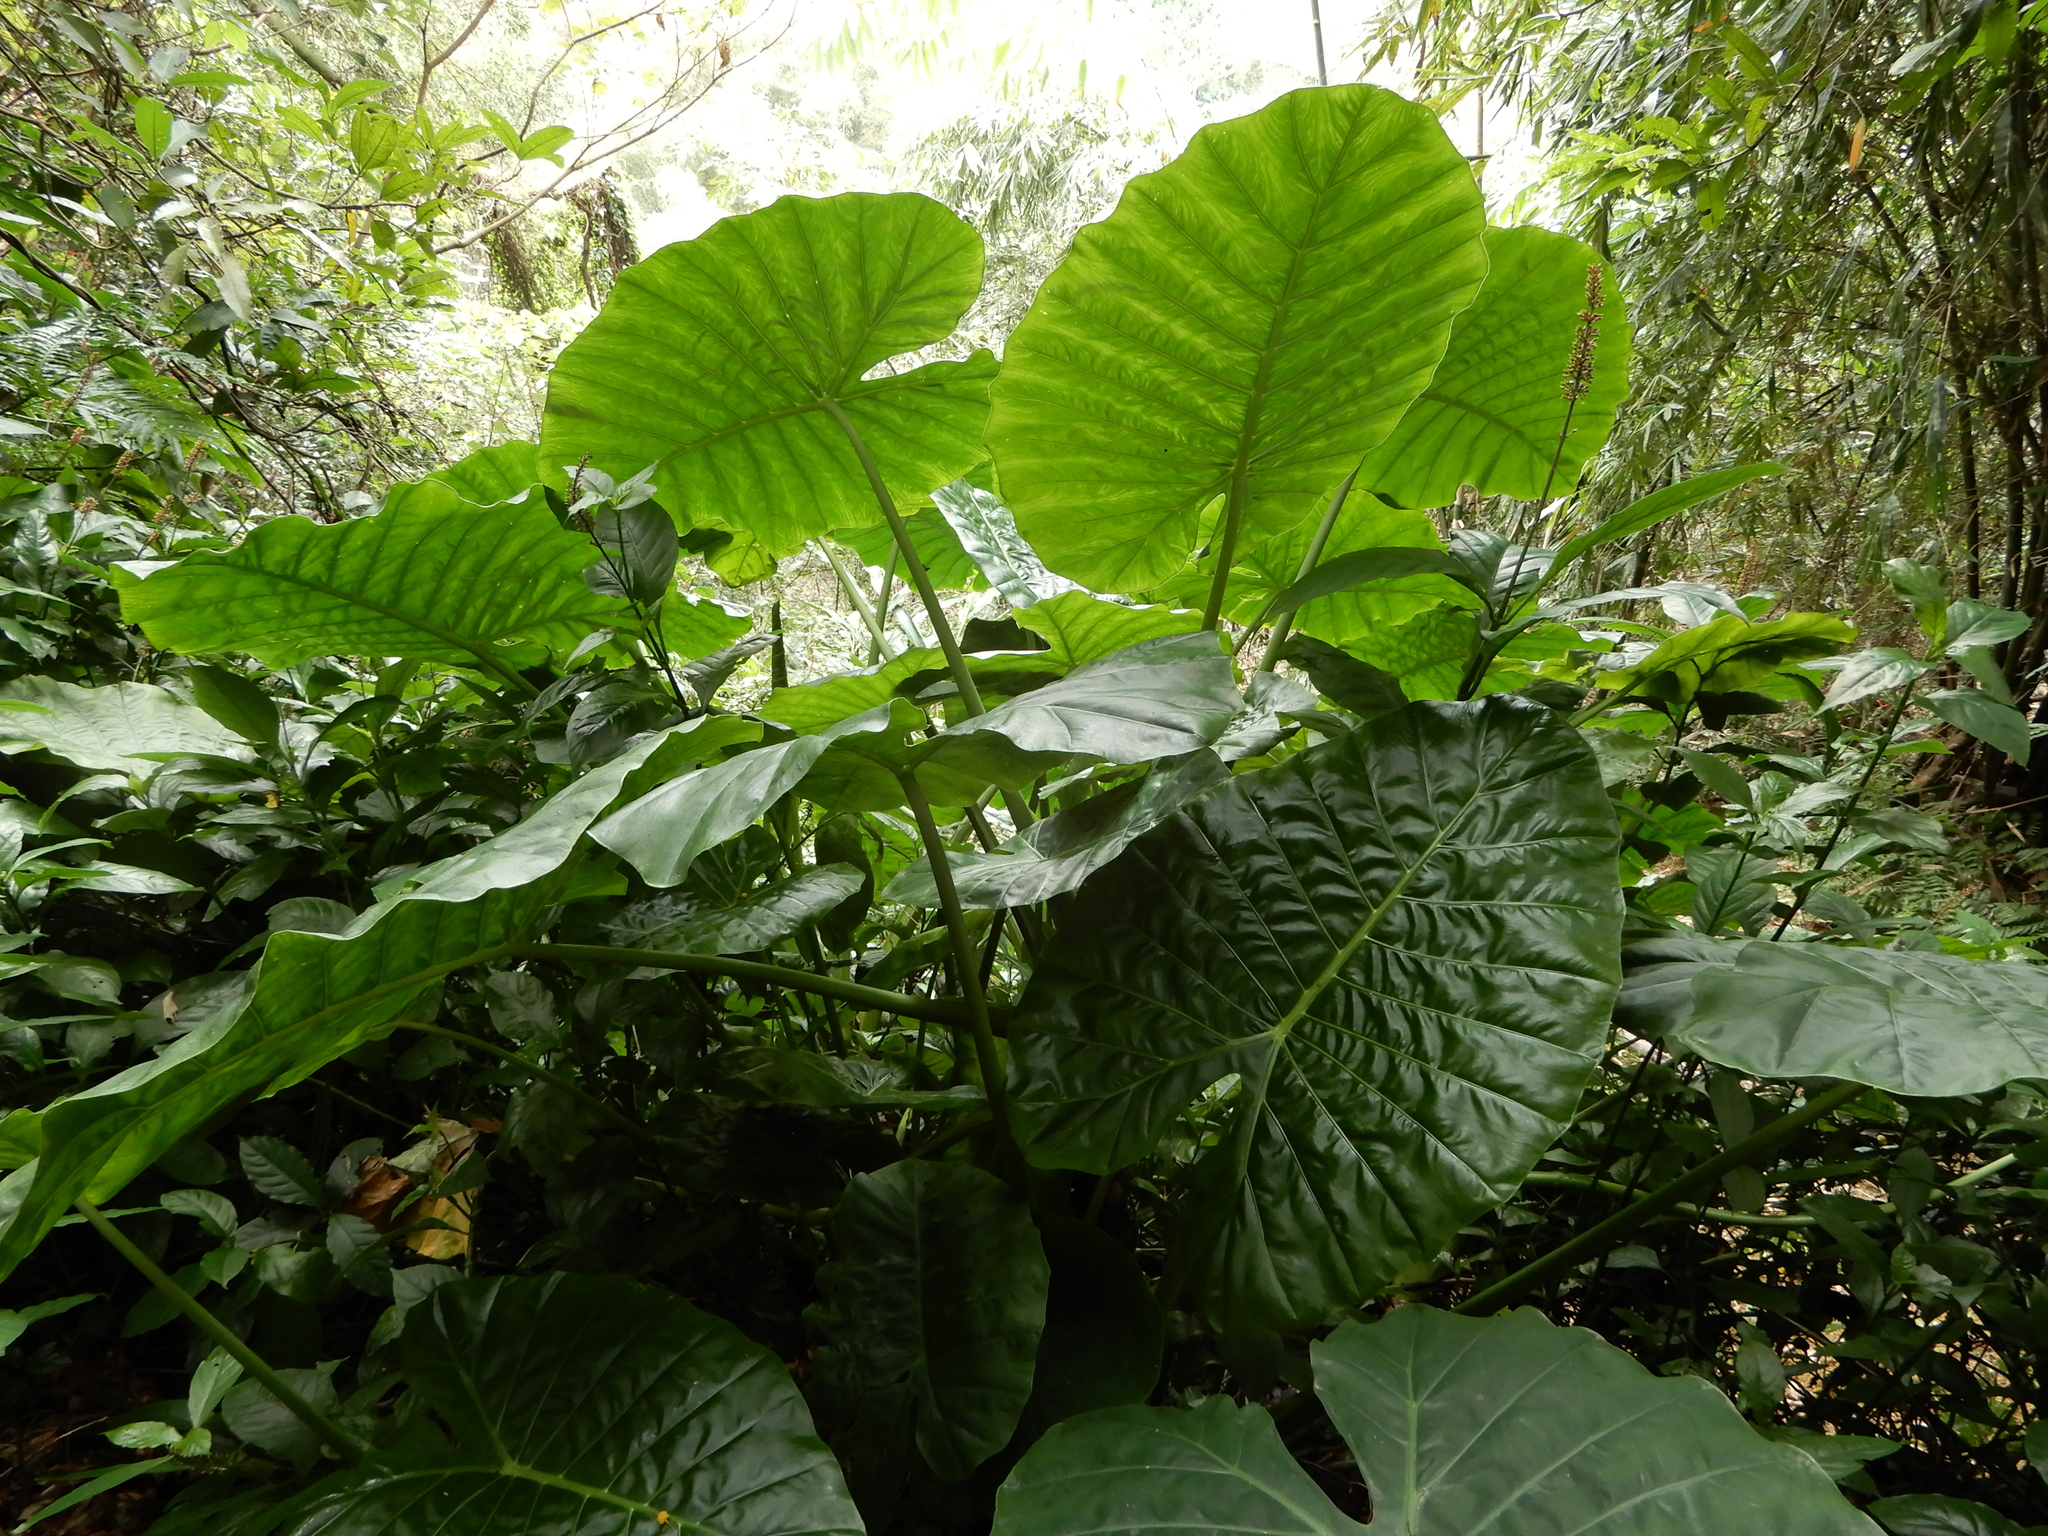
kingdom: Plantae
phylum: Tracheophyta
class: Liliopsida
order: Alismatales
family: Araceae
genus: Alocasia
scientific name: Alocasia odora
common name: Asian taro
